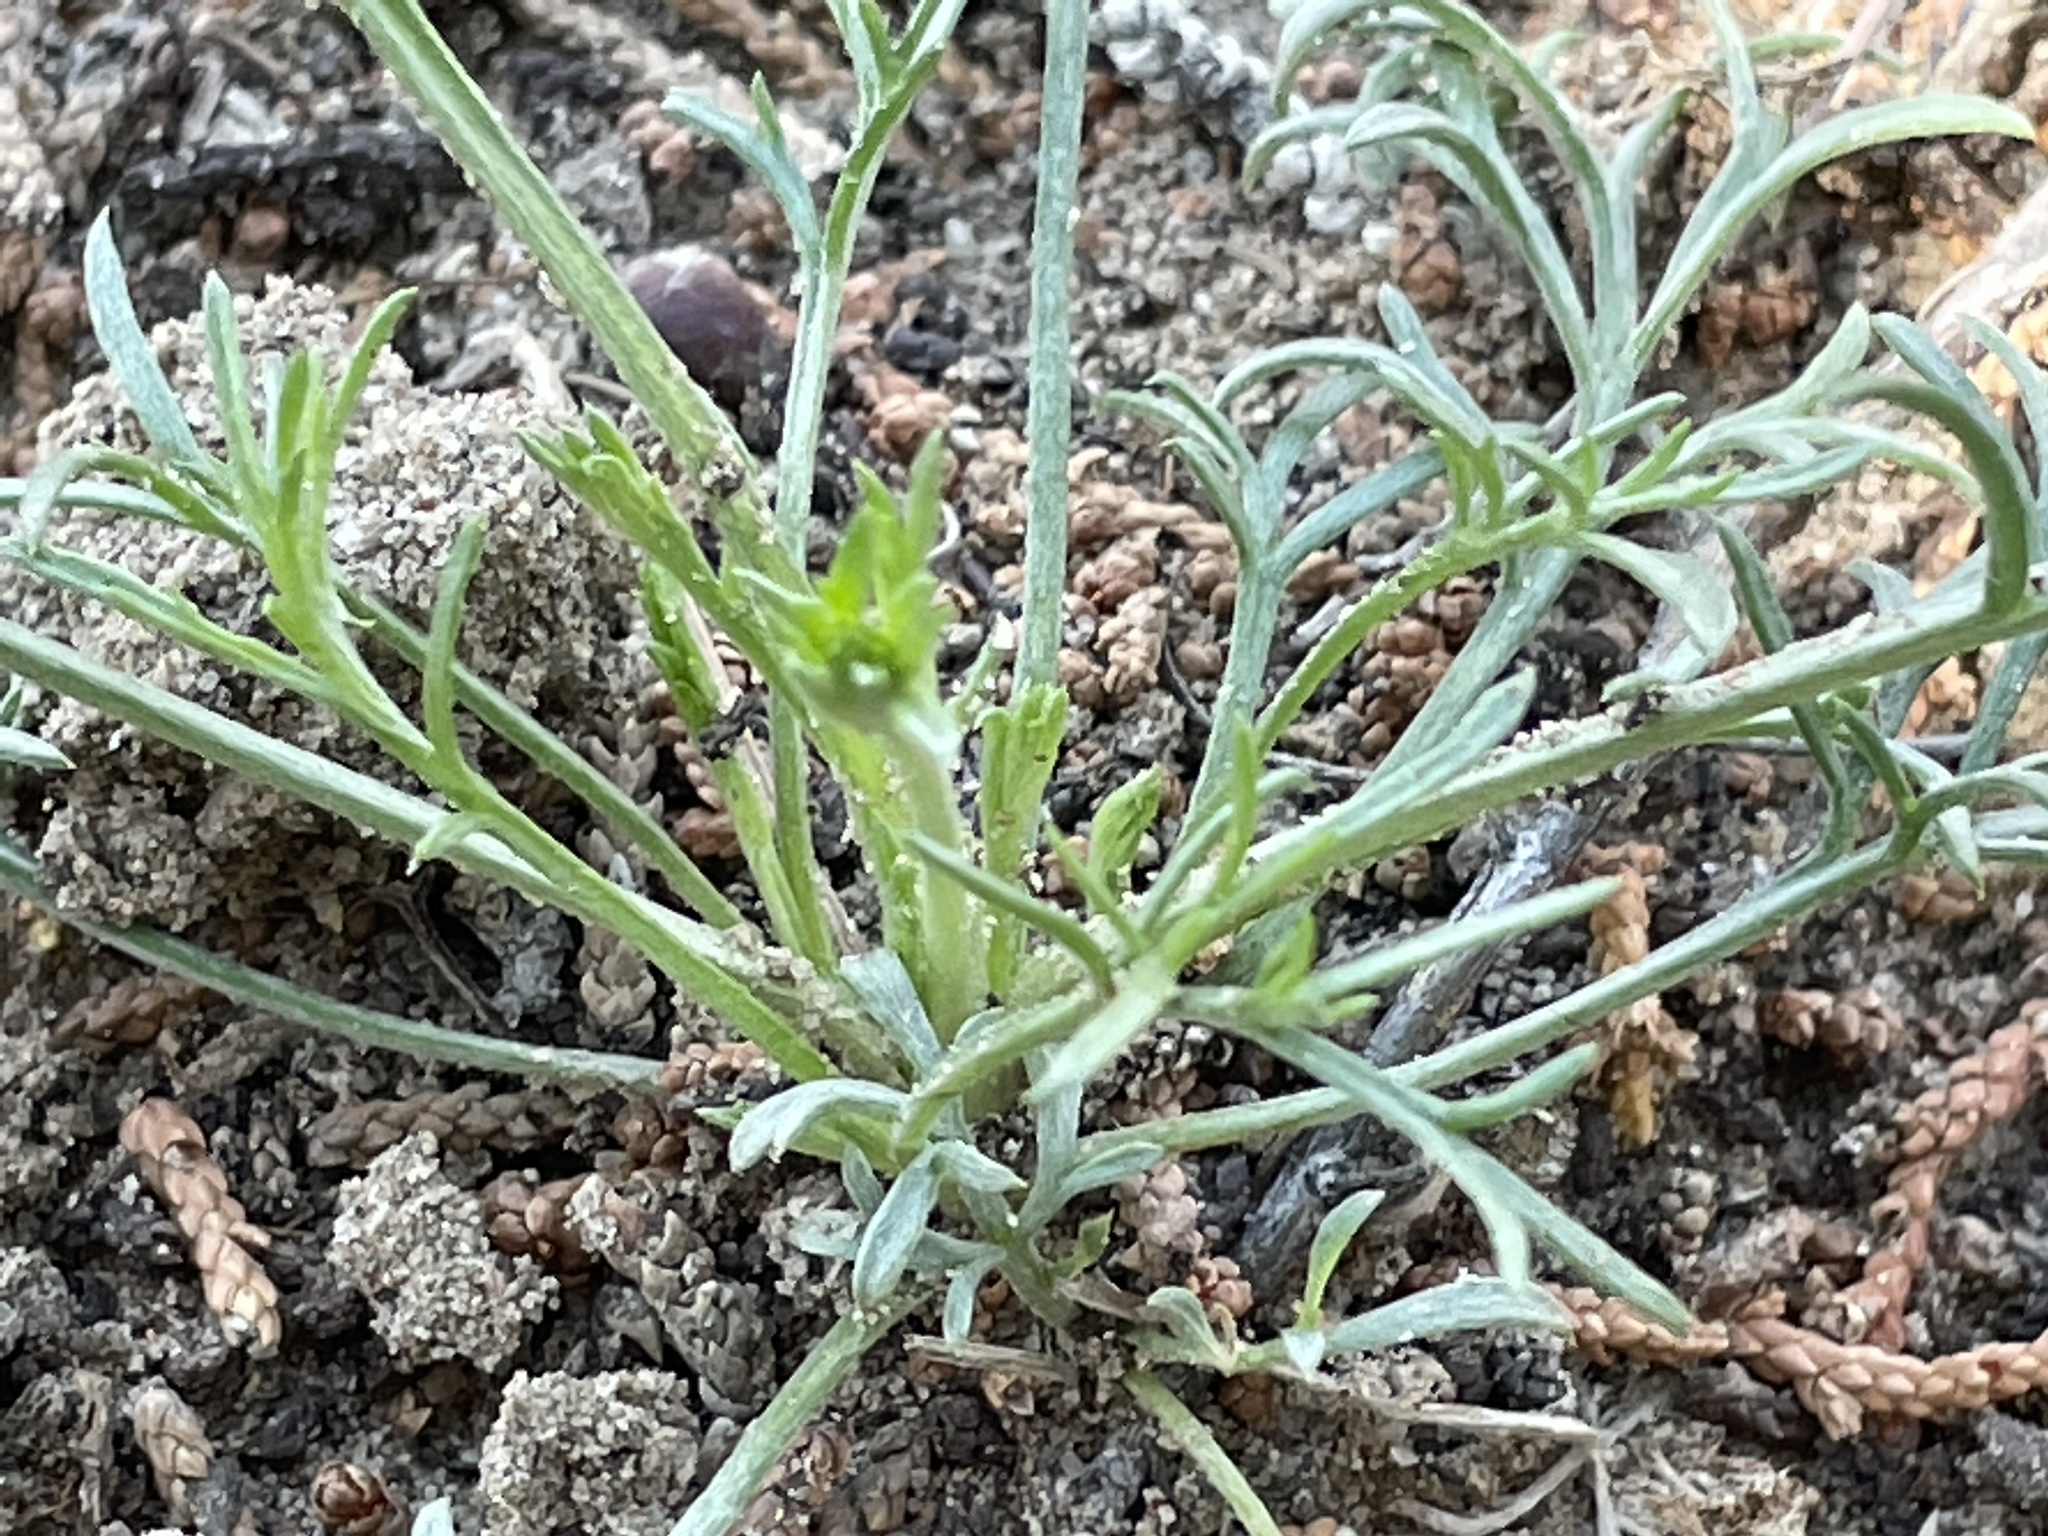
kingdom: Plantae
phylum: Tracheophyta
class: Magnoliopsida
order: Asterales
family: Asteraceae
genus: Hymenopappus
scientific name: Hymenopappus filifolius
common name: Columbia cutleaf
